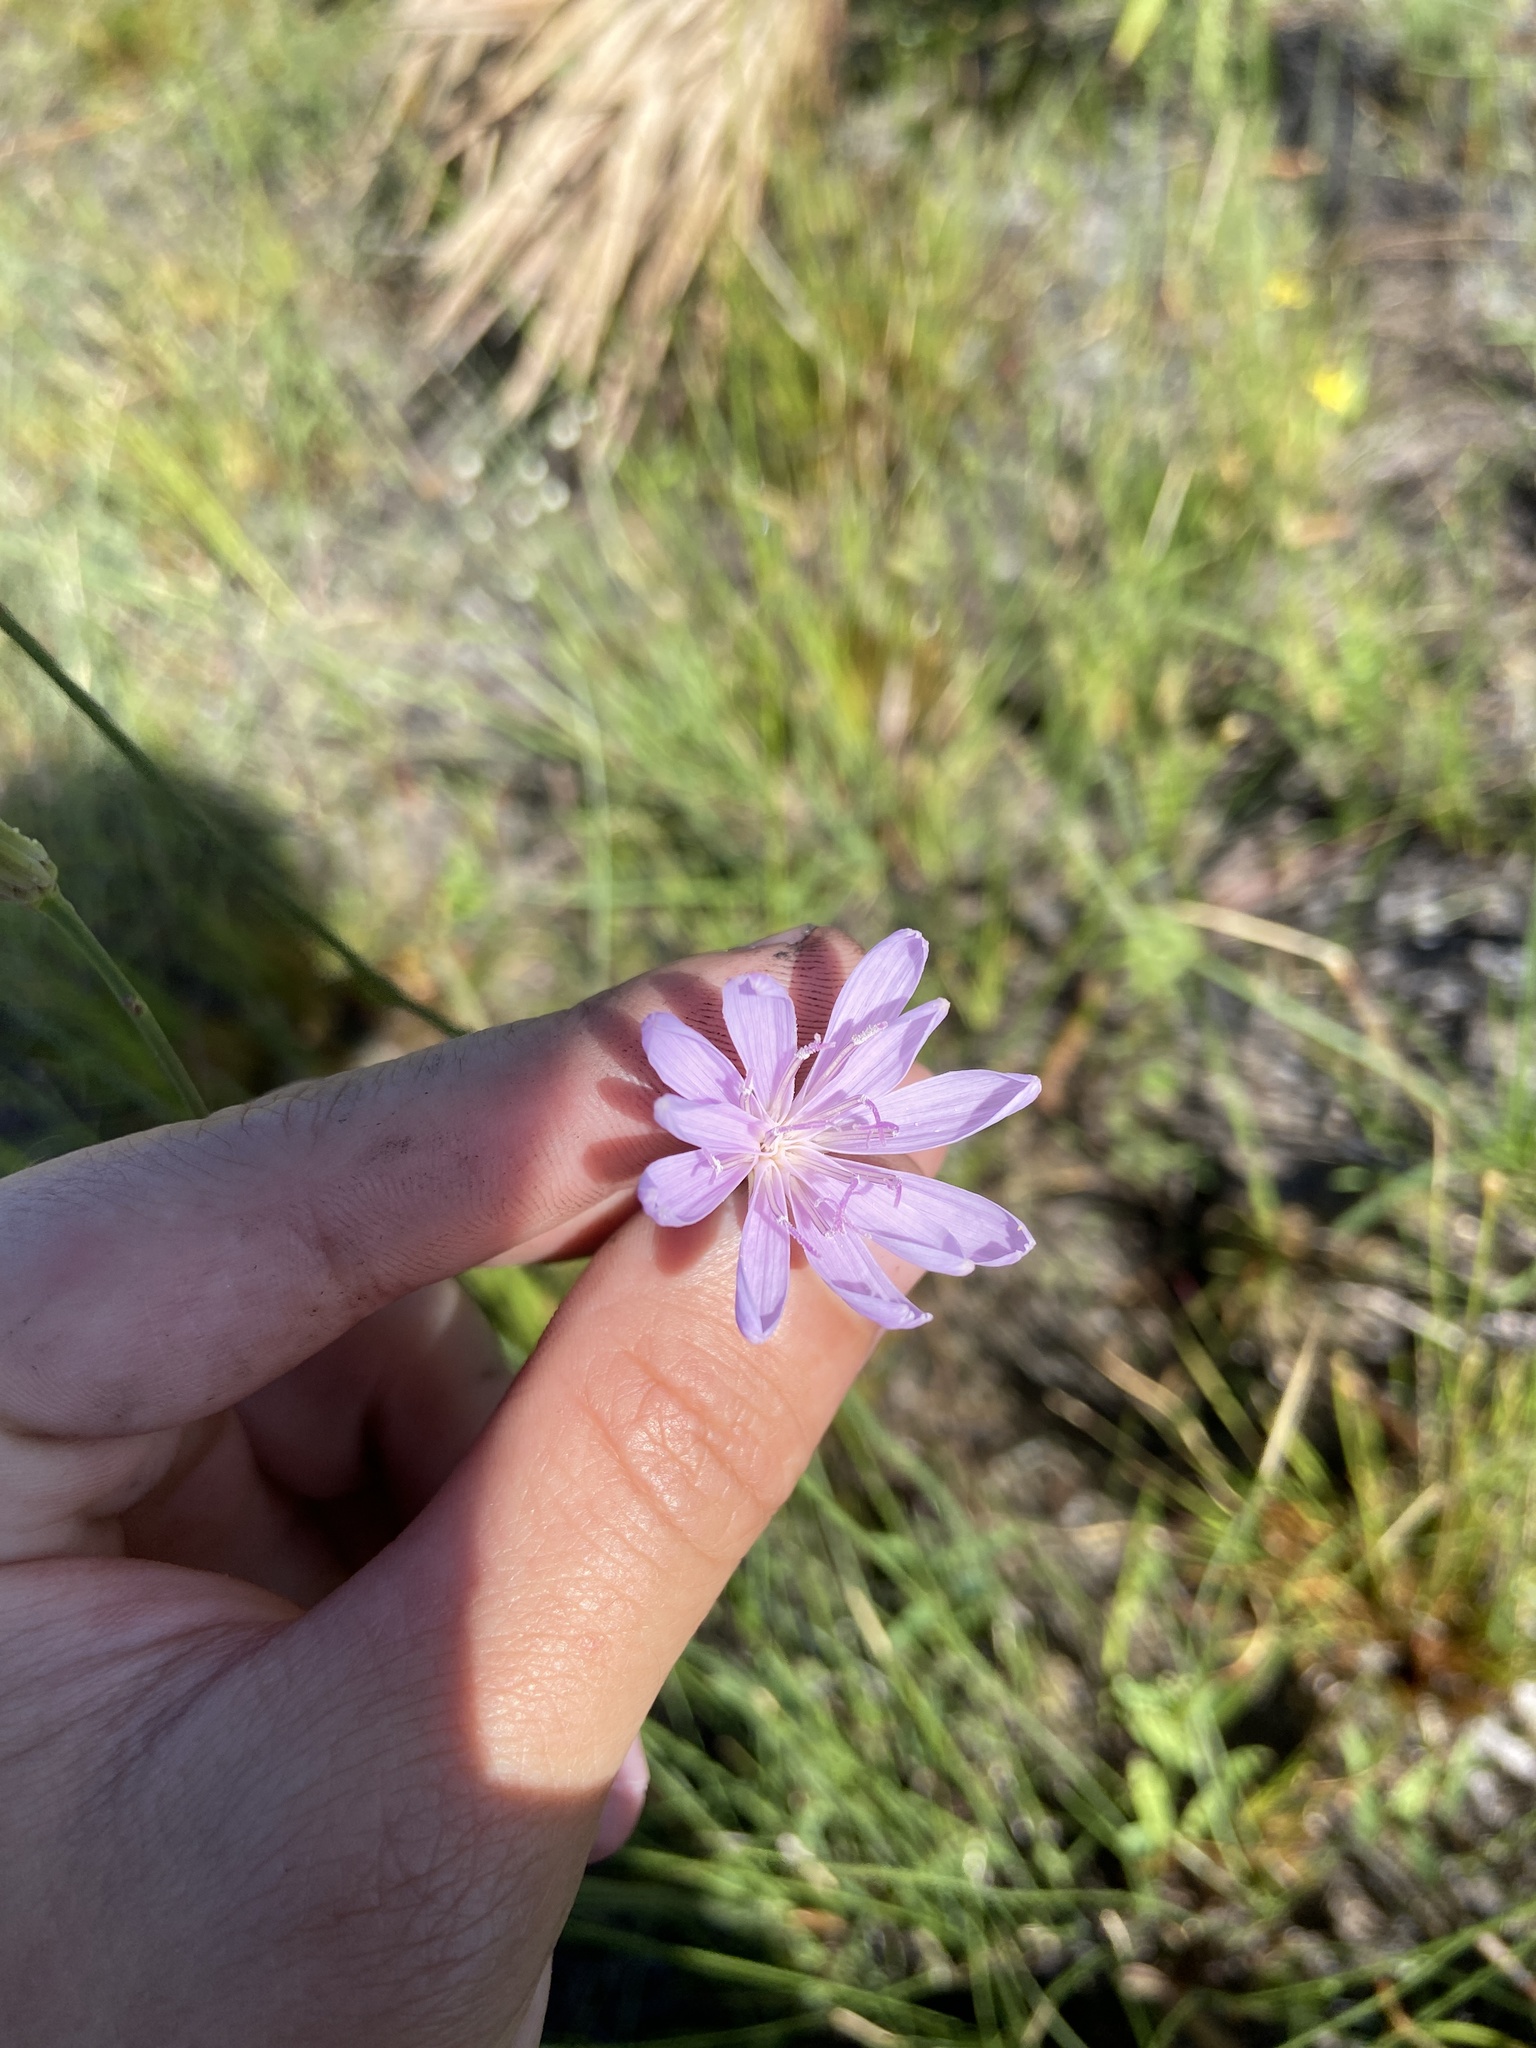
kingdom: Plantae
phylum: Tracheophyta
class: Magnoliopsida
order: Asterales
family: Asteraceae
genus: Lygodesmia
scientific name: Lygodesmia aphylla
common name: Rose-rush
